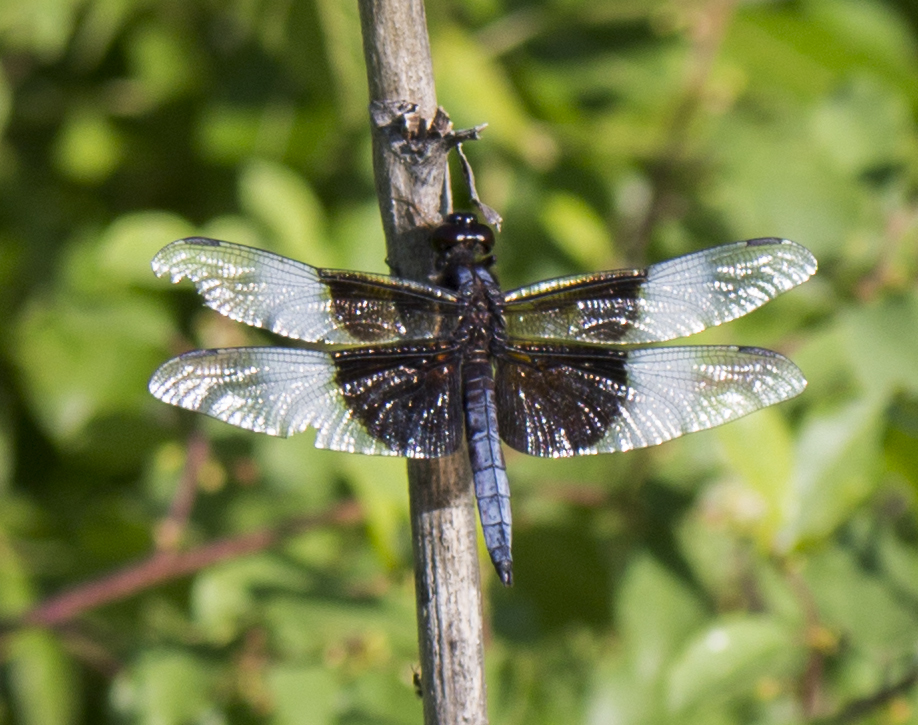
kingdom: Animalia
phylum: Arthropoda
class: Insecta
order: Odonata
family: Libellulidae
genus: Libellula
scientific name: Libellula luctuosa
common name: Widow skimmer
